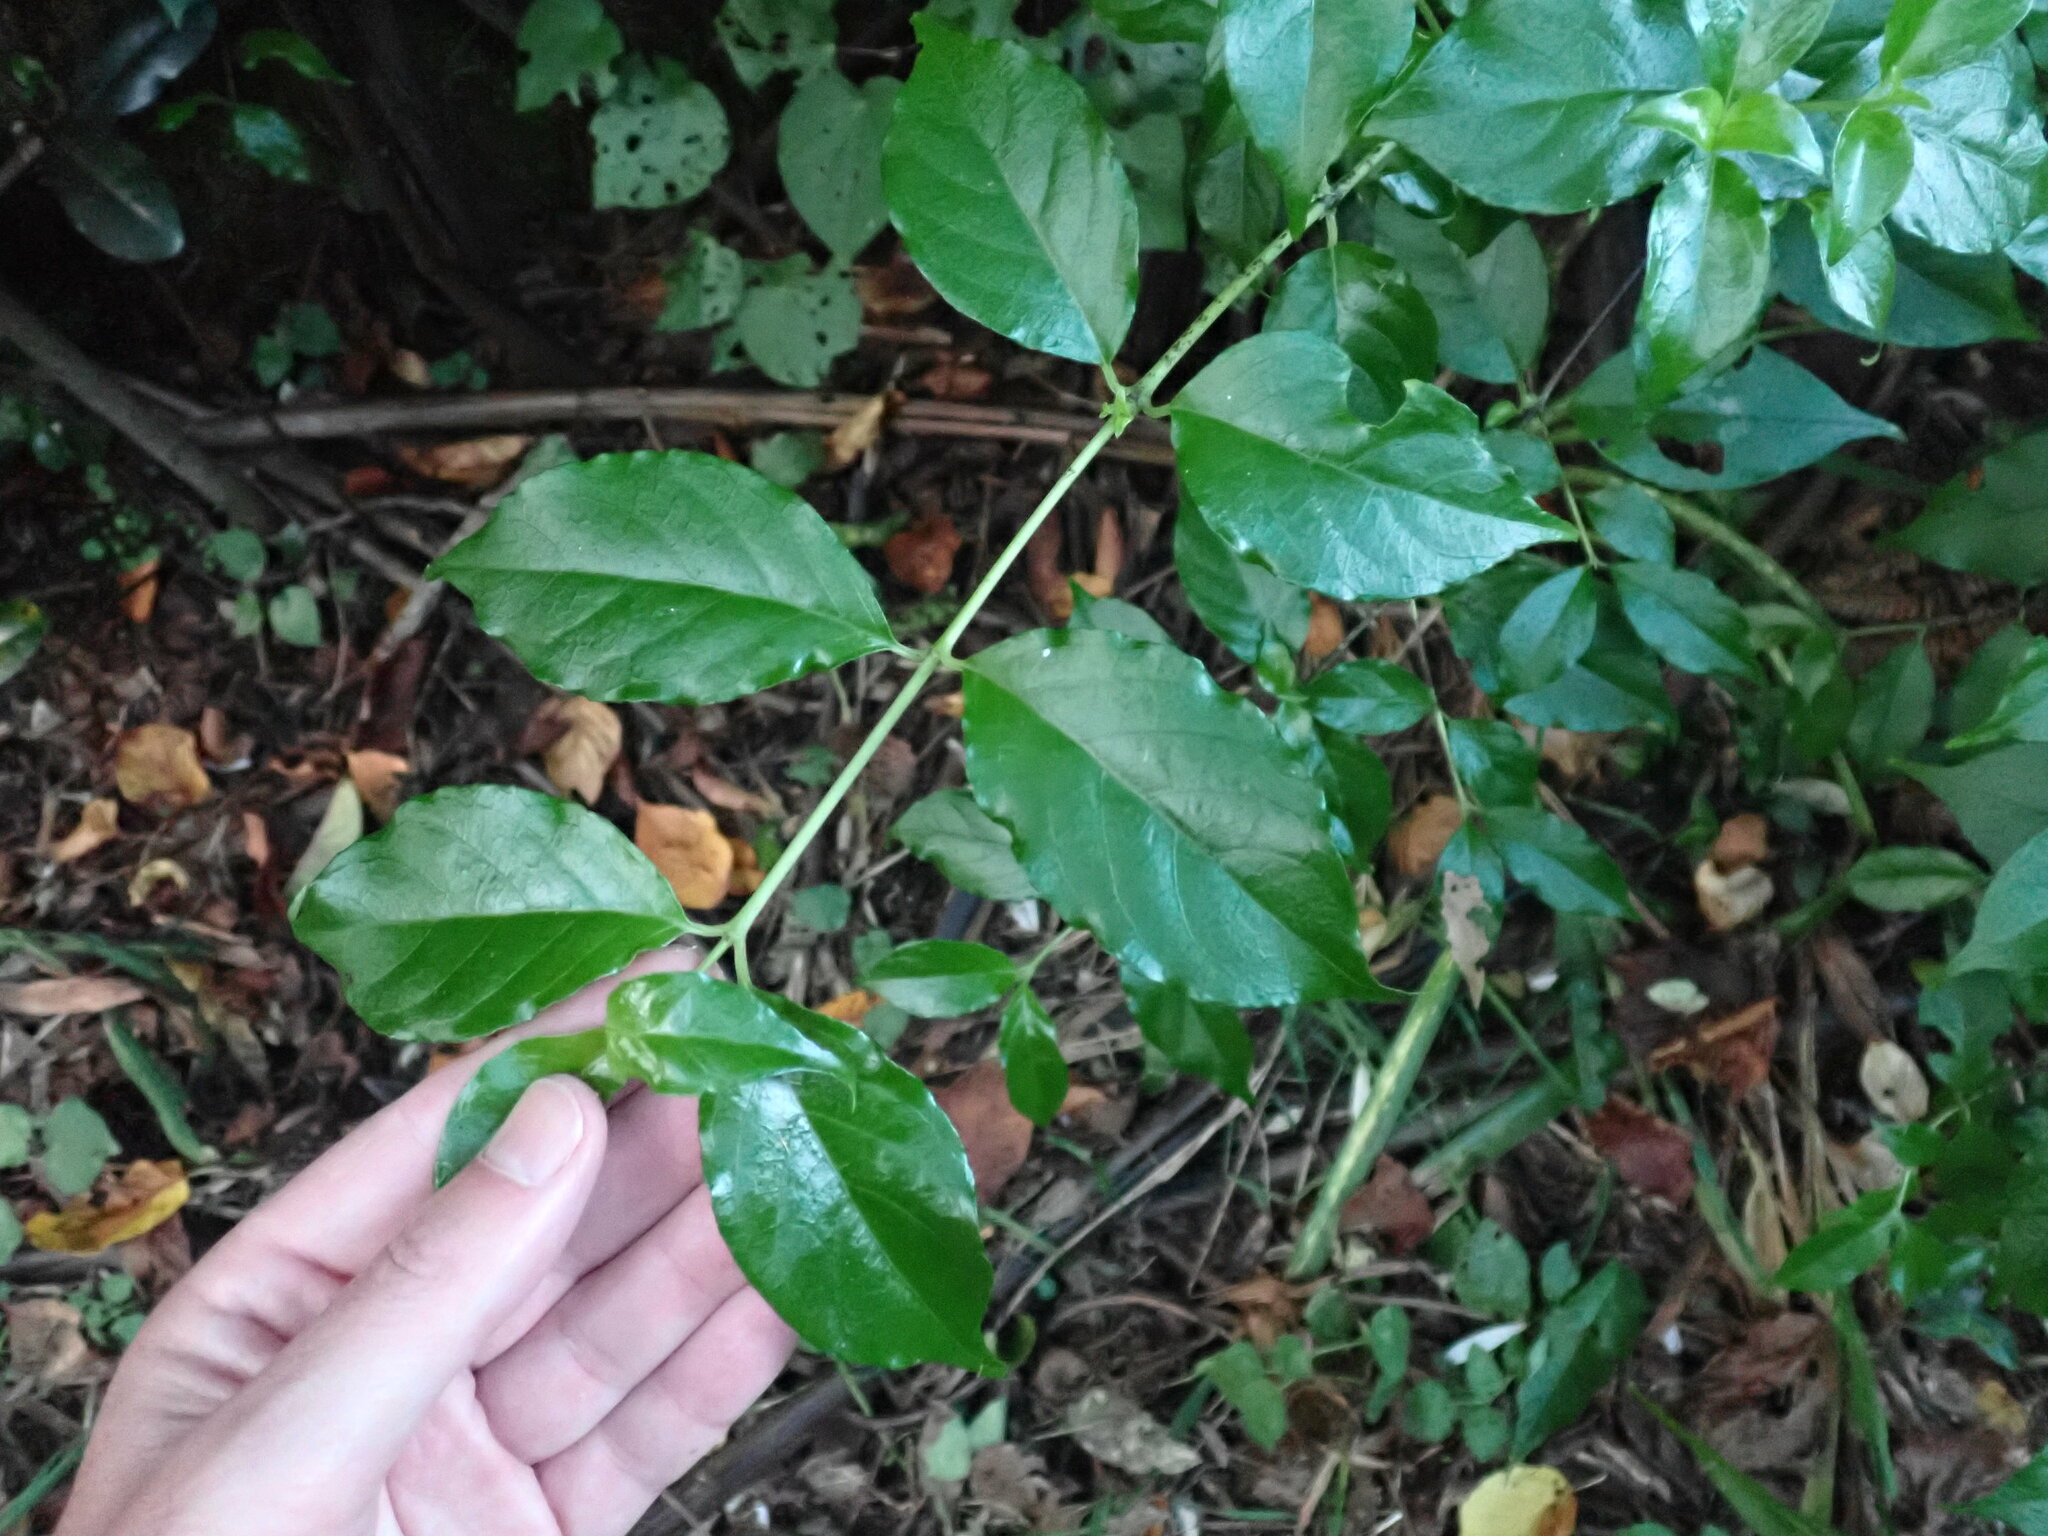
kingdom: Plantae
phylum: Tracheophyta
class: Magnoliopsida
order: Gentianales
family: Loganiaceae
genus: Geniostoma
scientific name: Geniostoma ligustrifolium
